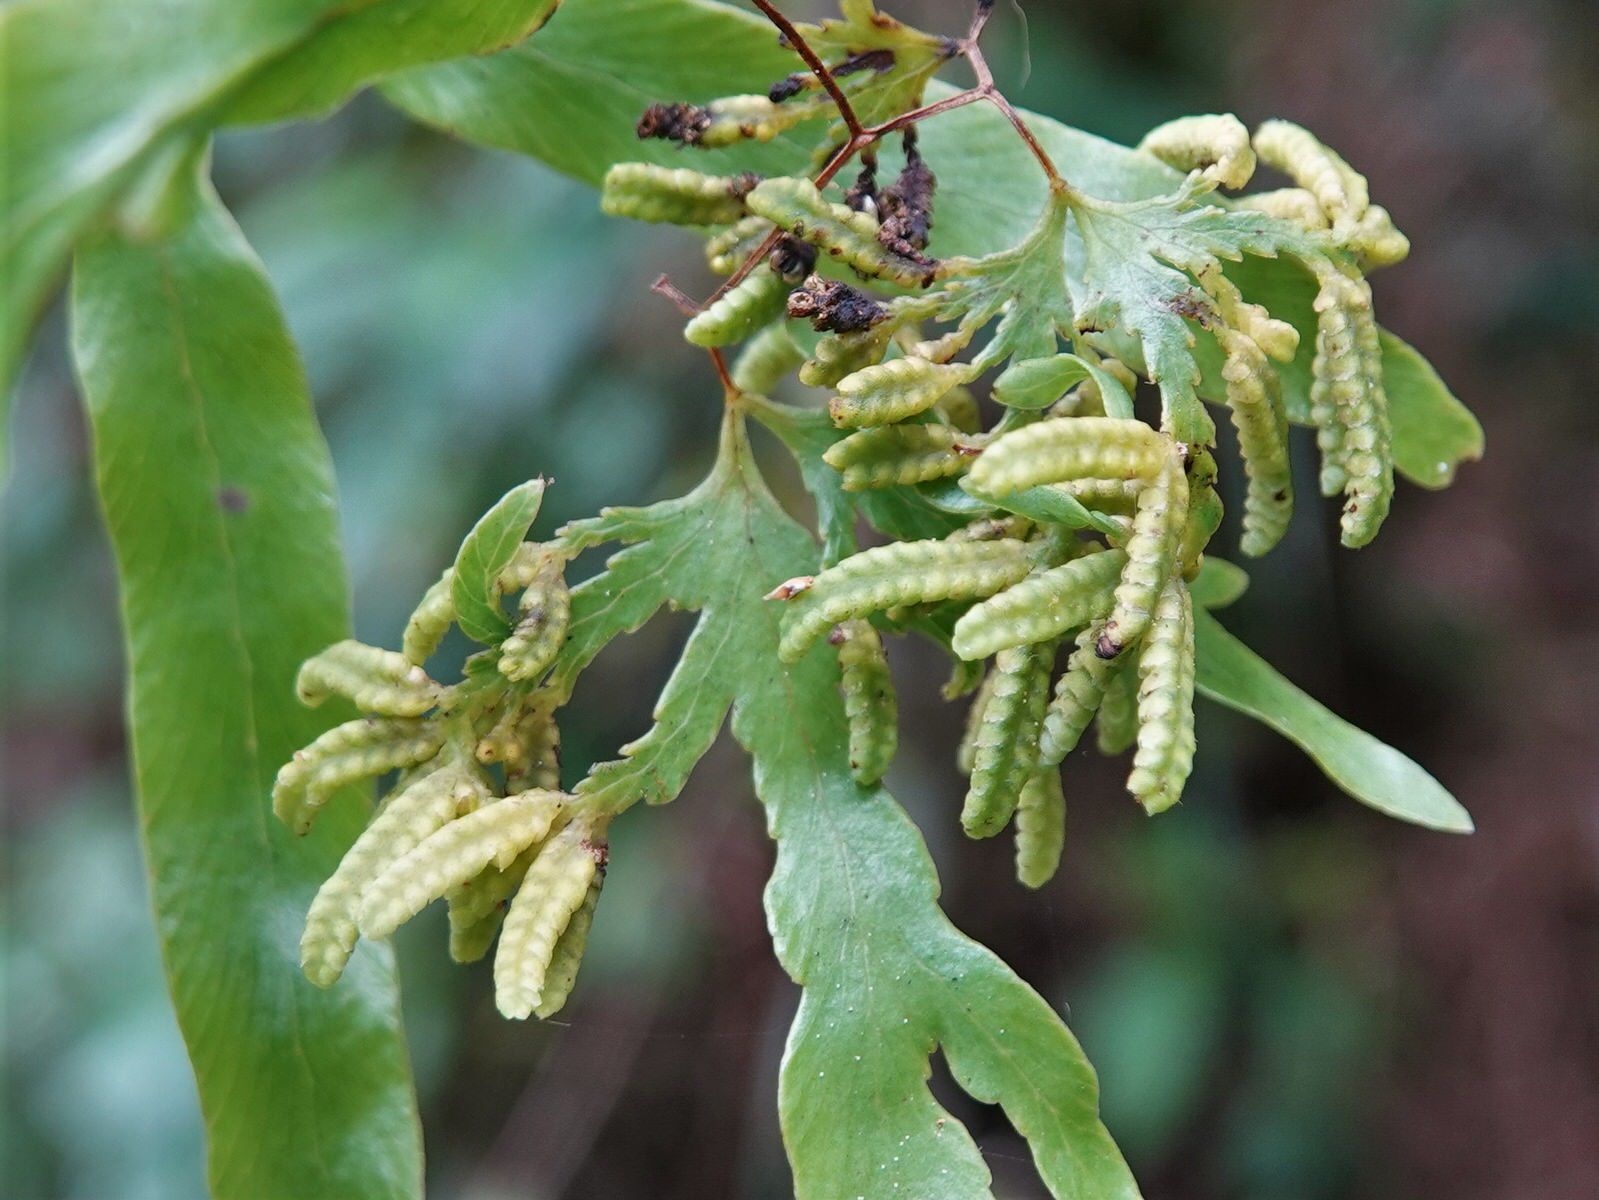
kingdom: Plantae
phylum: Tracheophyta
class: Polypodiopsida
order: Schizaeales
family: Lygodiaceae
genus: Lygodium
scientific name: Lygodium articulatum
